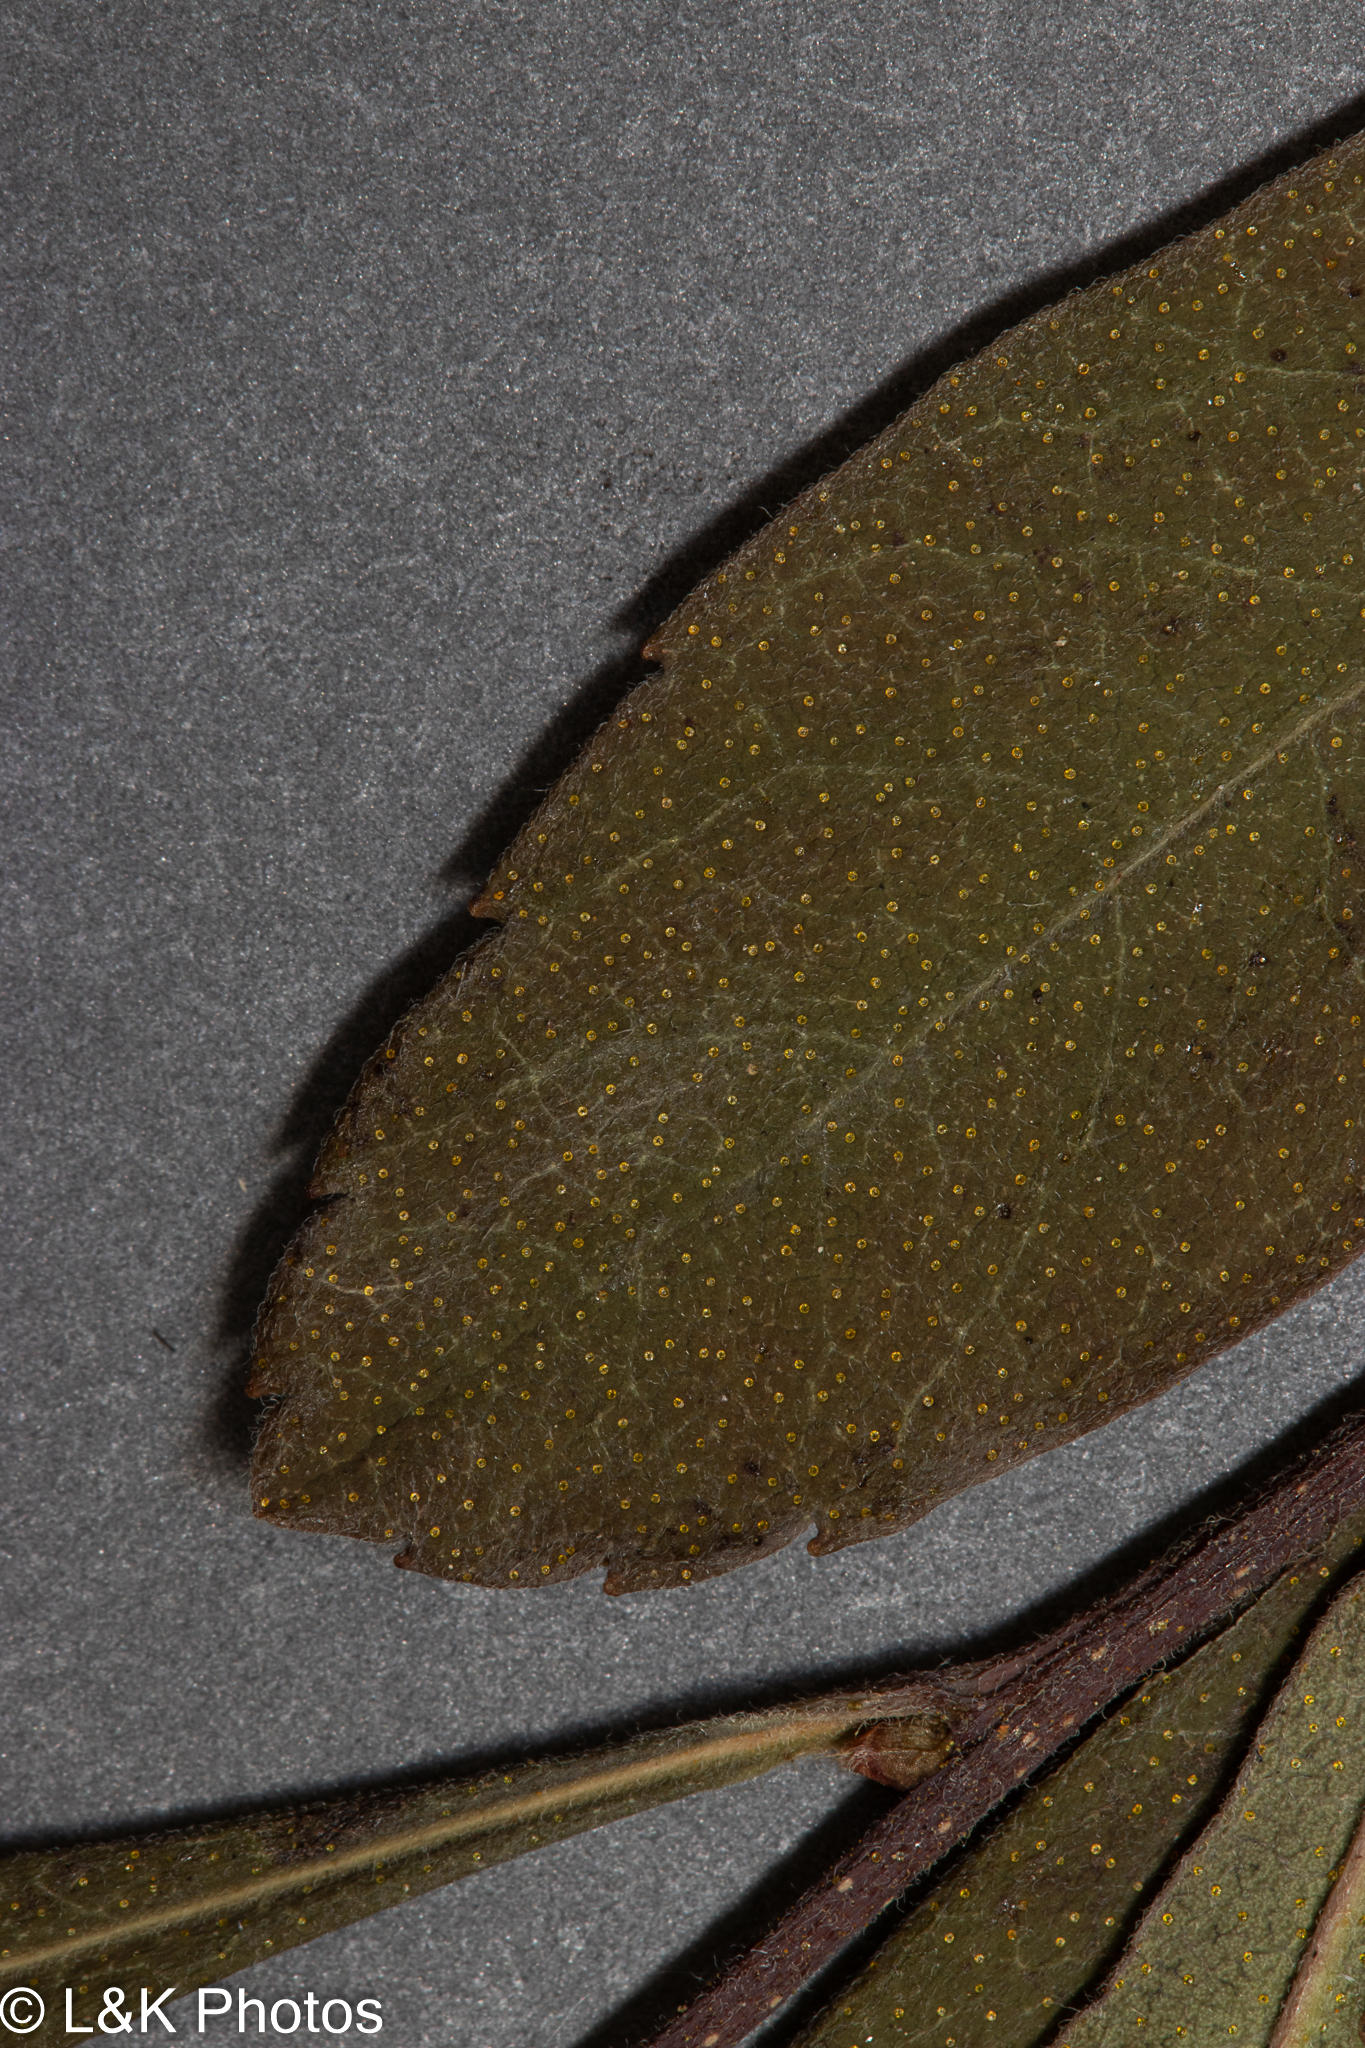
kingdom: Plantae
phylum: Tracheophyta
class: Magnoliopsida
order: Fagales
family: Myricaceae
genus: Myrica
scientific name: Myrica gale
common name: Sweet gale
